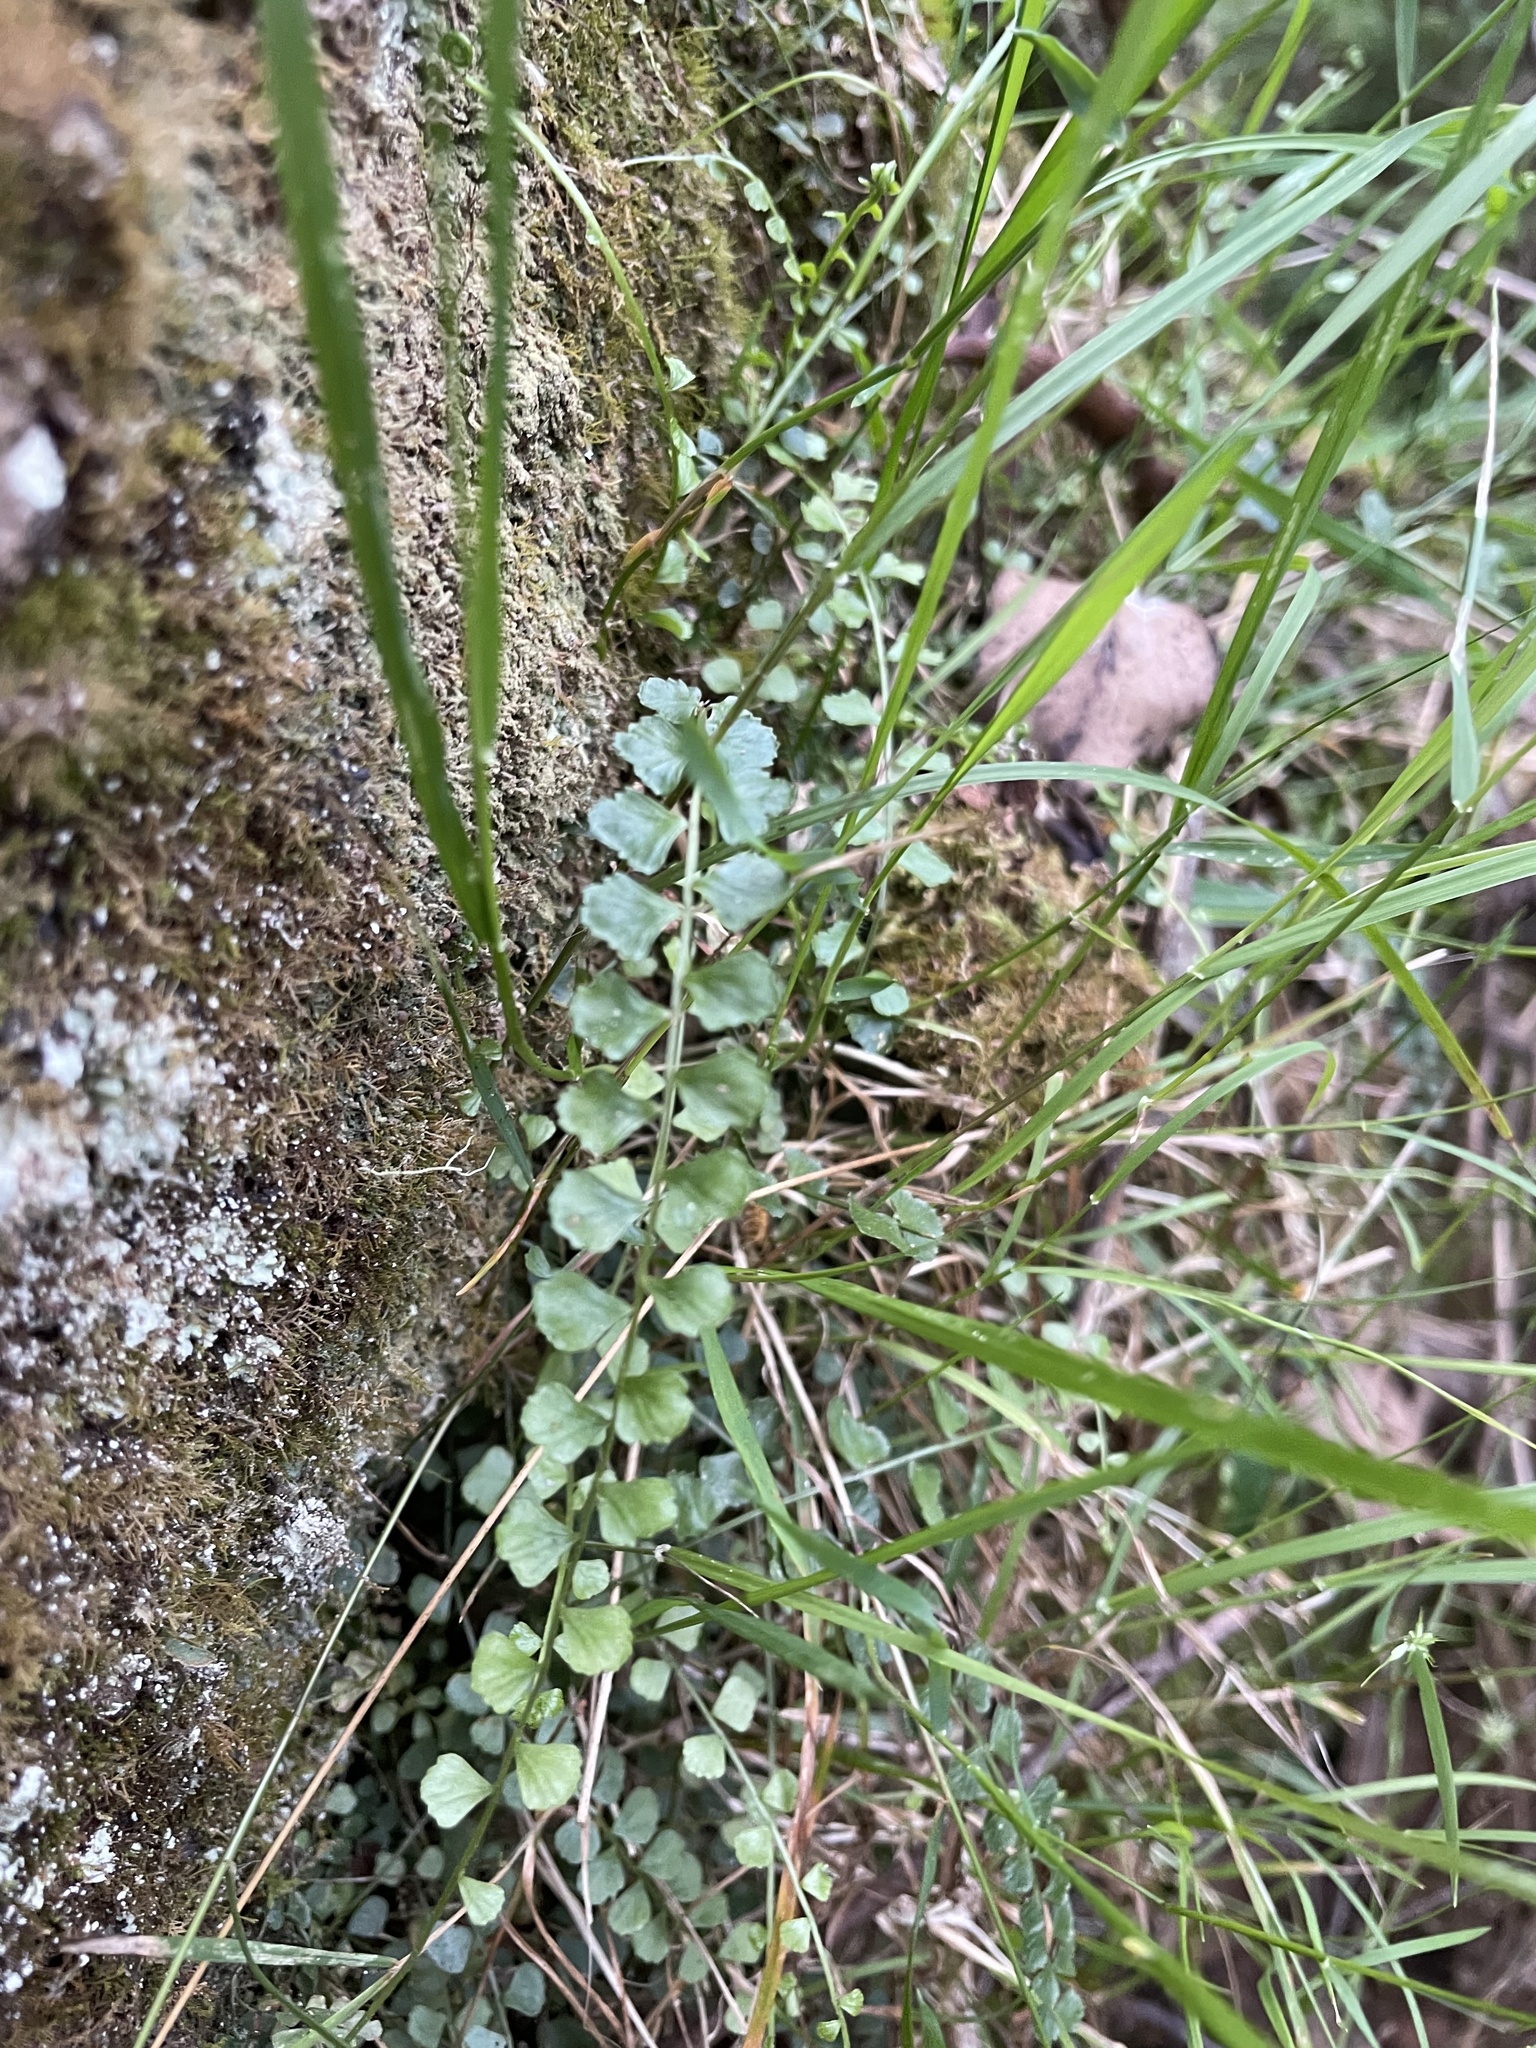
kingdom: Plantae
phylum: Tracheophyta
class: Polypodiopsida
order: Polypodiales
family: Aspleniaceae
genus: Asplenium
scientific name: Asplenium flabellifolium
